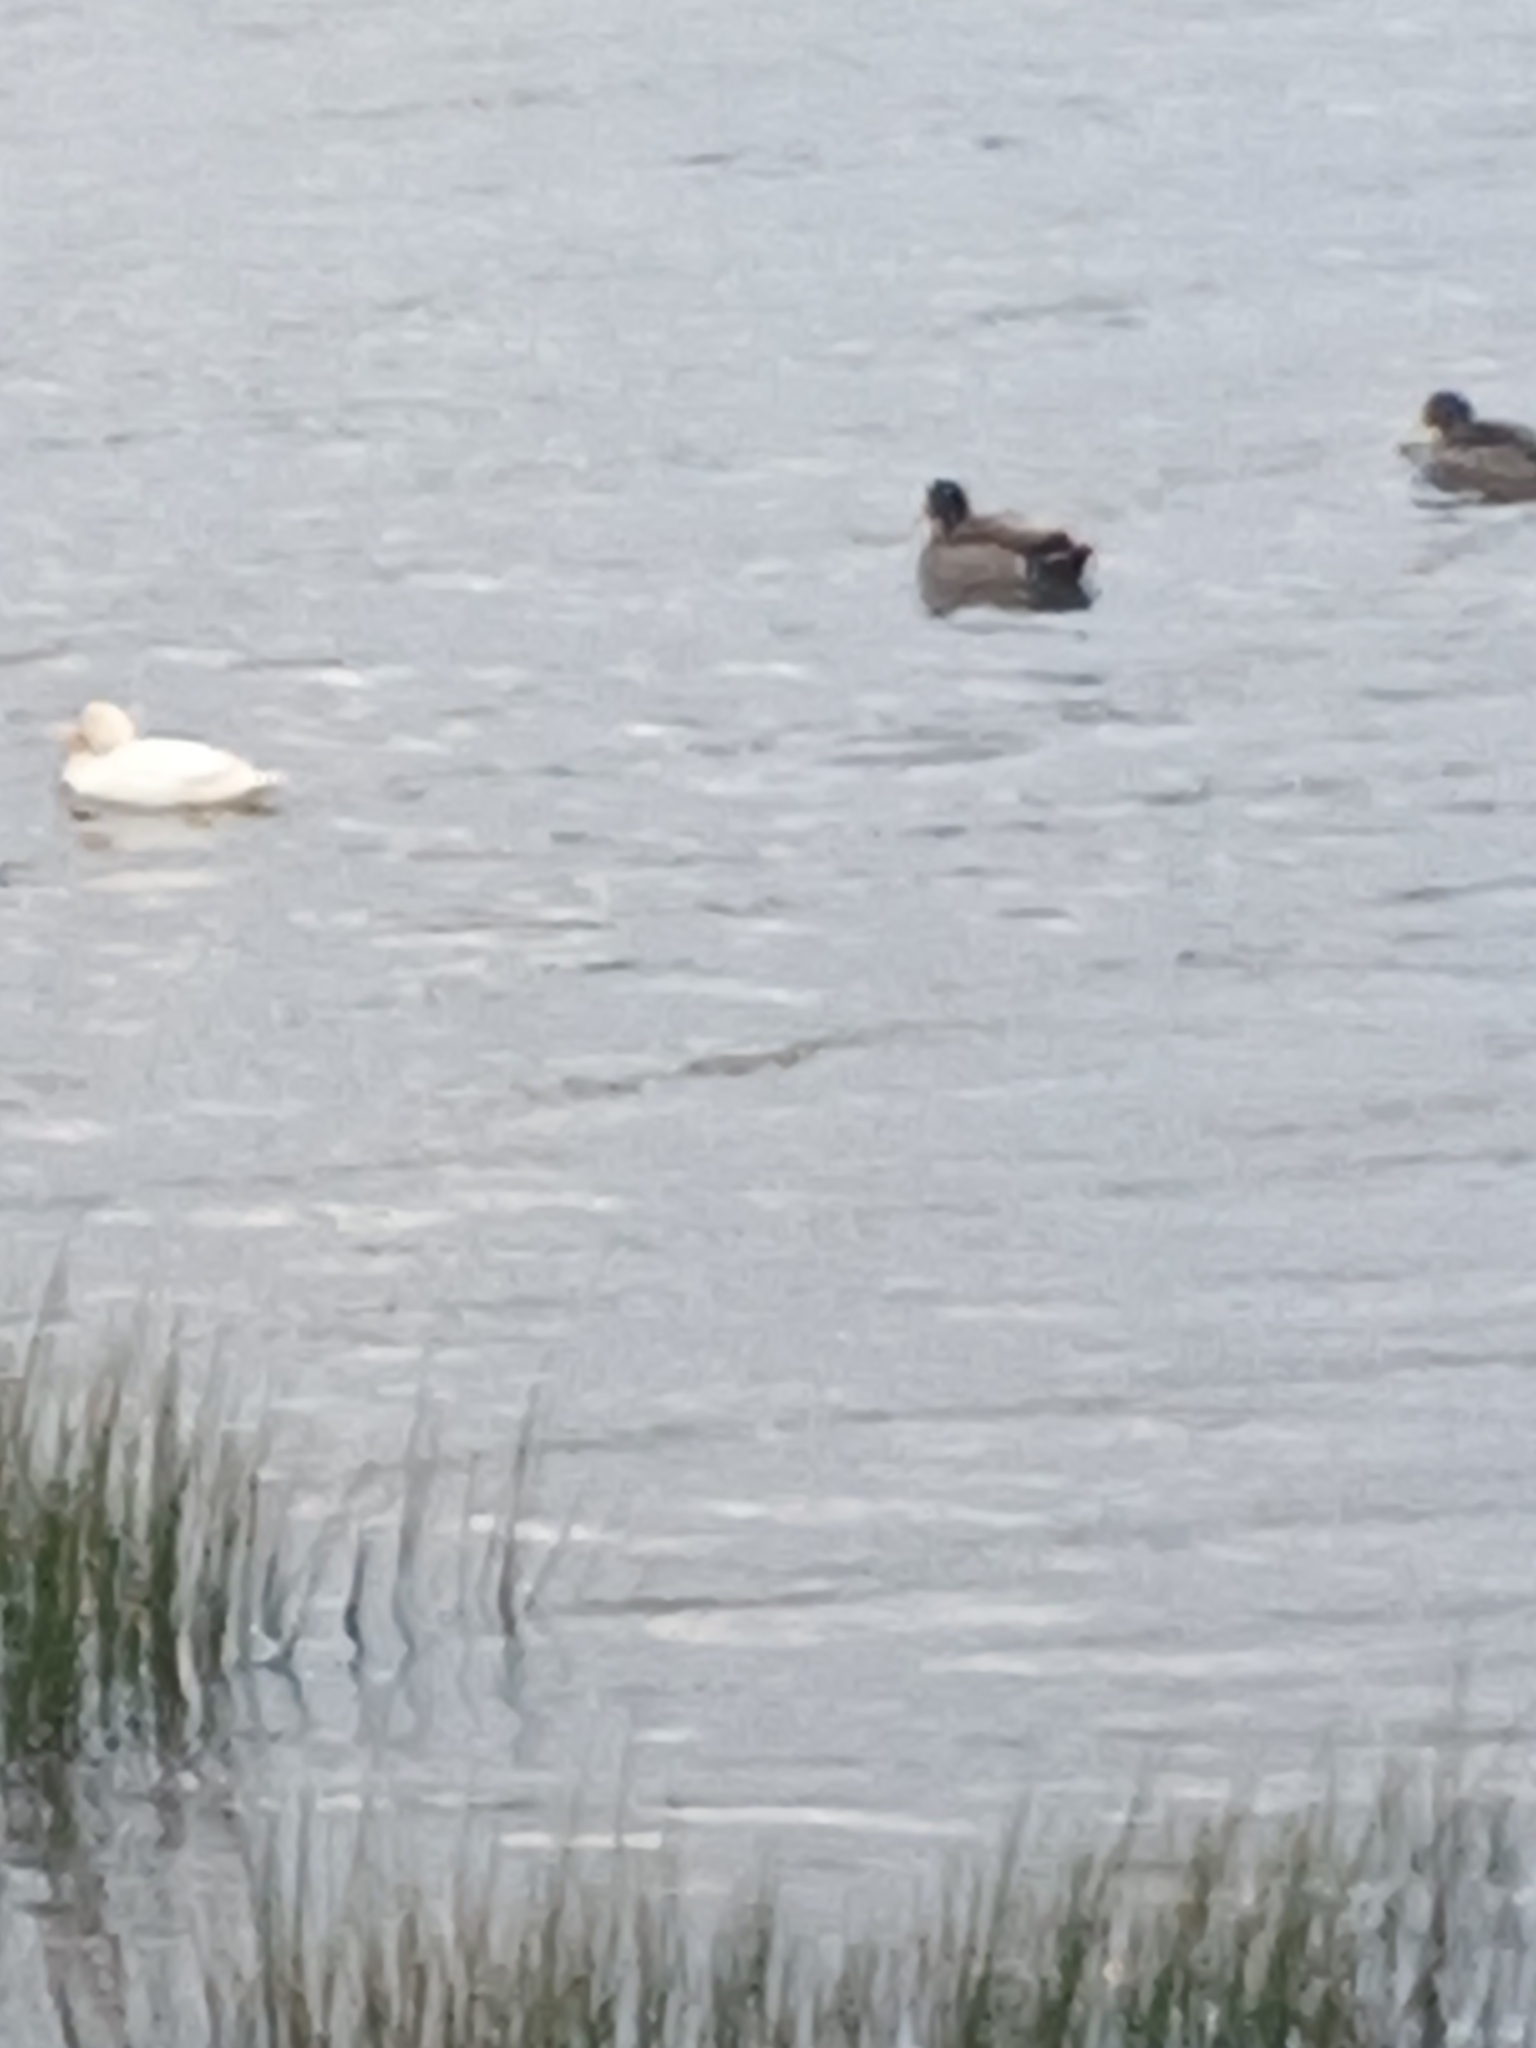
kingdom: Animalia
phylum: Chordata
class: Aves
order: Anseriformes
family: Anatidae
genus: Anas
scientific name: Anas platyrhynchos
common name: Mallard
